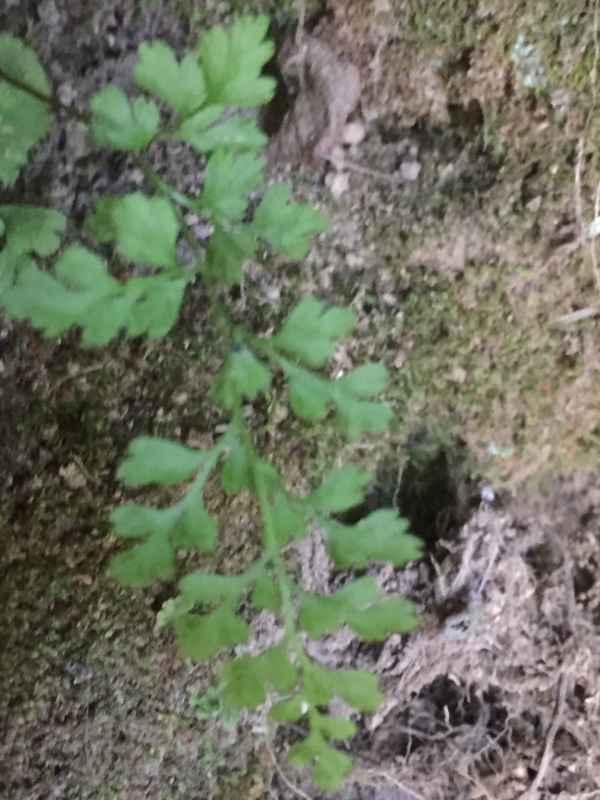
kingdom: Plantae
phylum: Tracheophyta
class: Polypodiopsida
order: Polypodiales
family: Pteridaceae
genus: Anogramma
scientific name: Anogramma leptophylla
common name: Jersey fern
